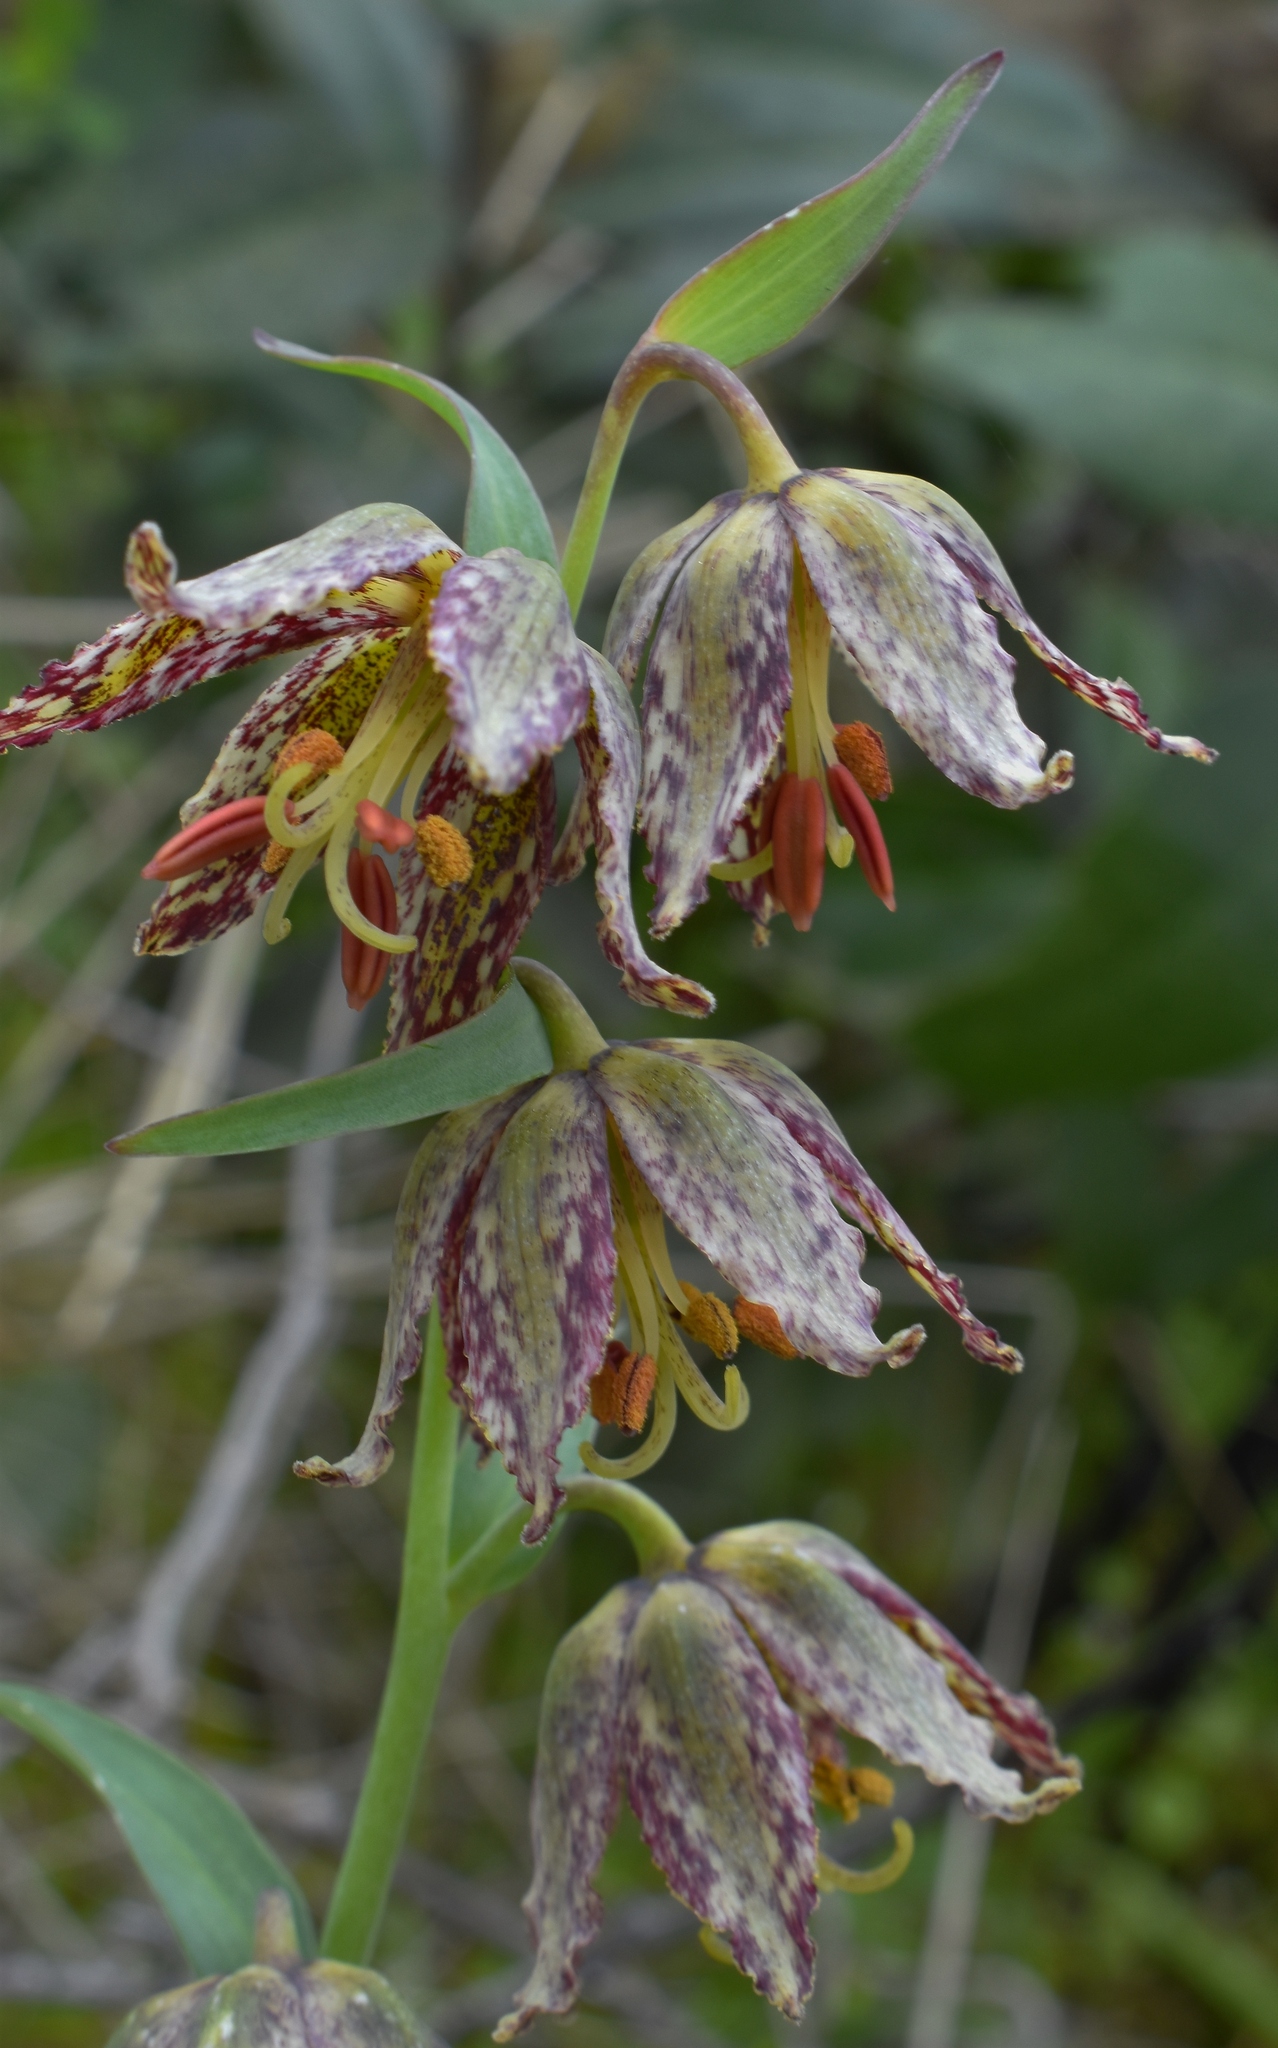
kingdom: Plantae
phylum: Tracheophyta
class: Liliopsida
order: Liliales
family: Liliaceae
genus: Fritillaria
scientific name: Fritillaria affinis
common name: Ojai fritillary
